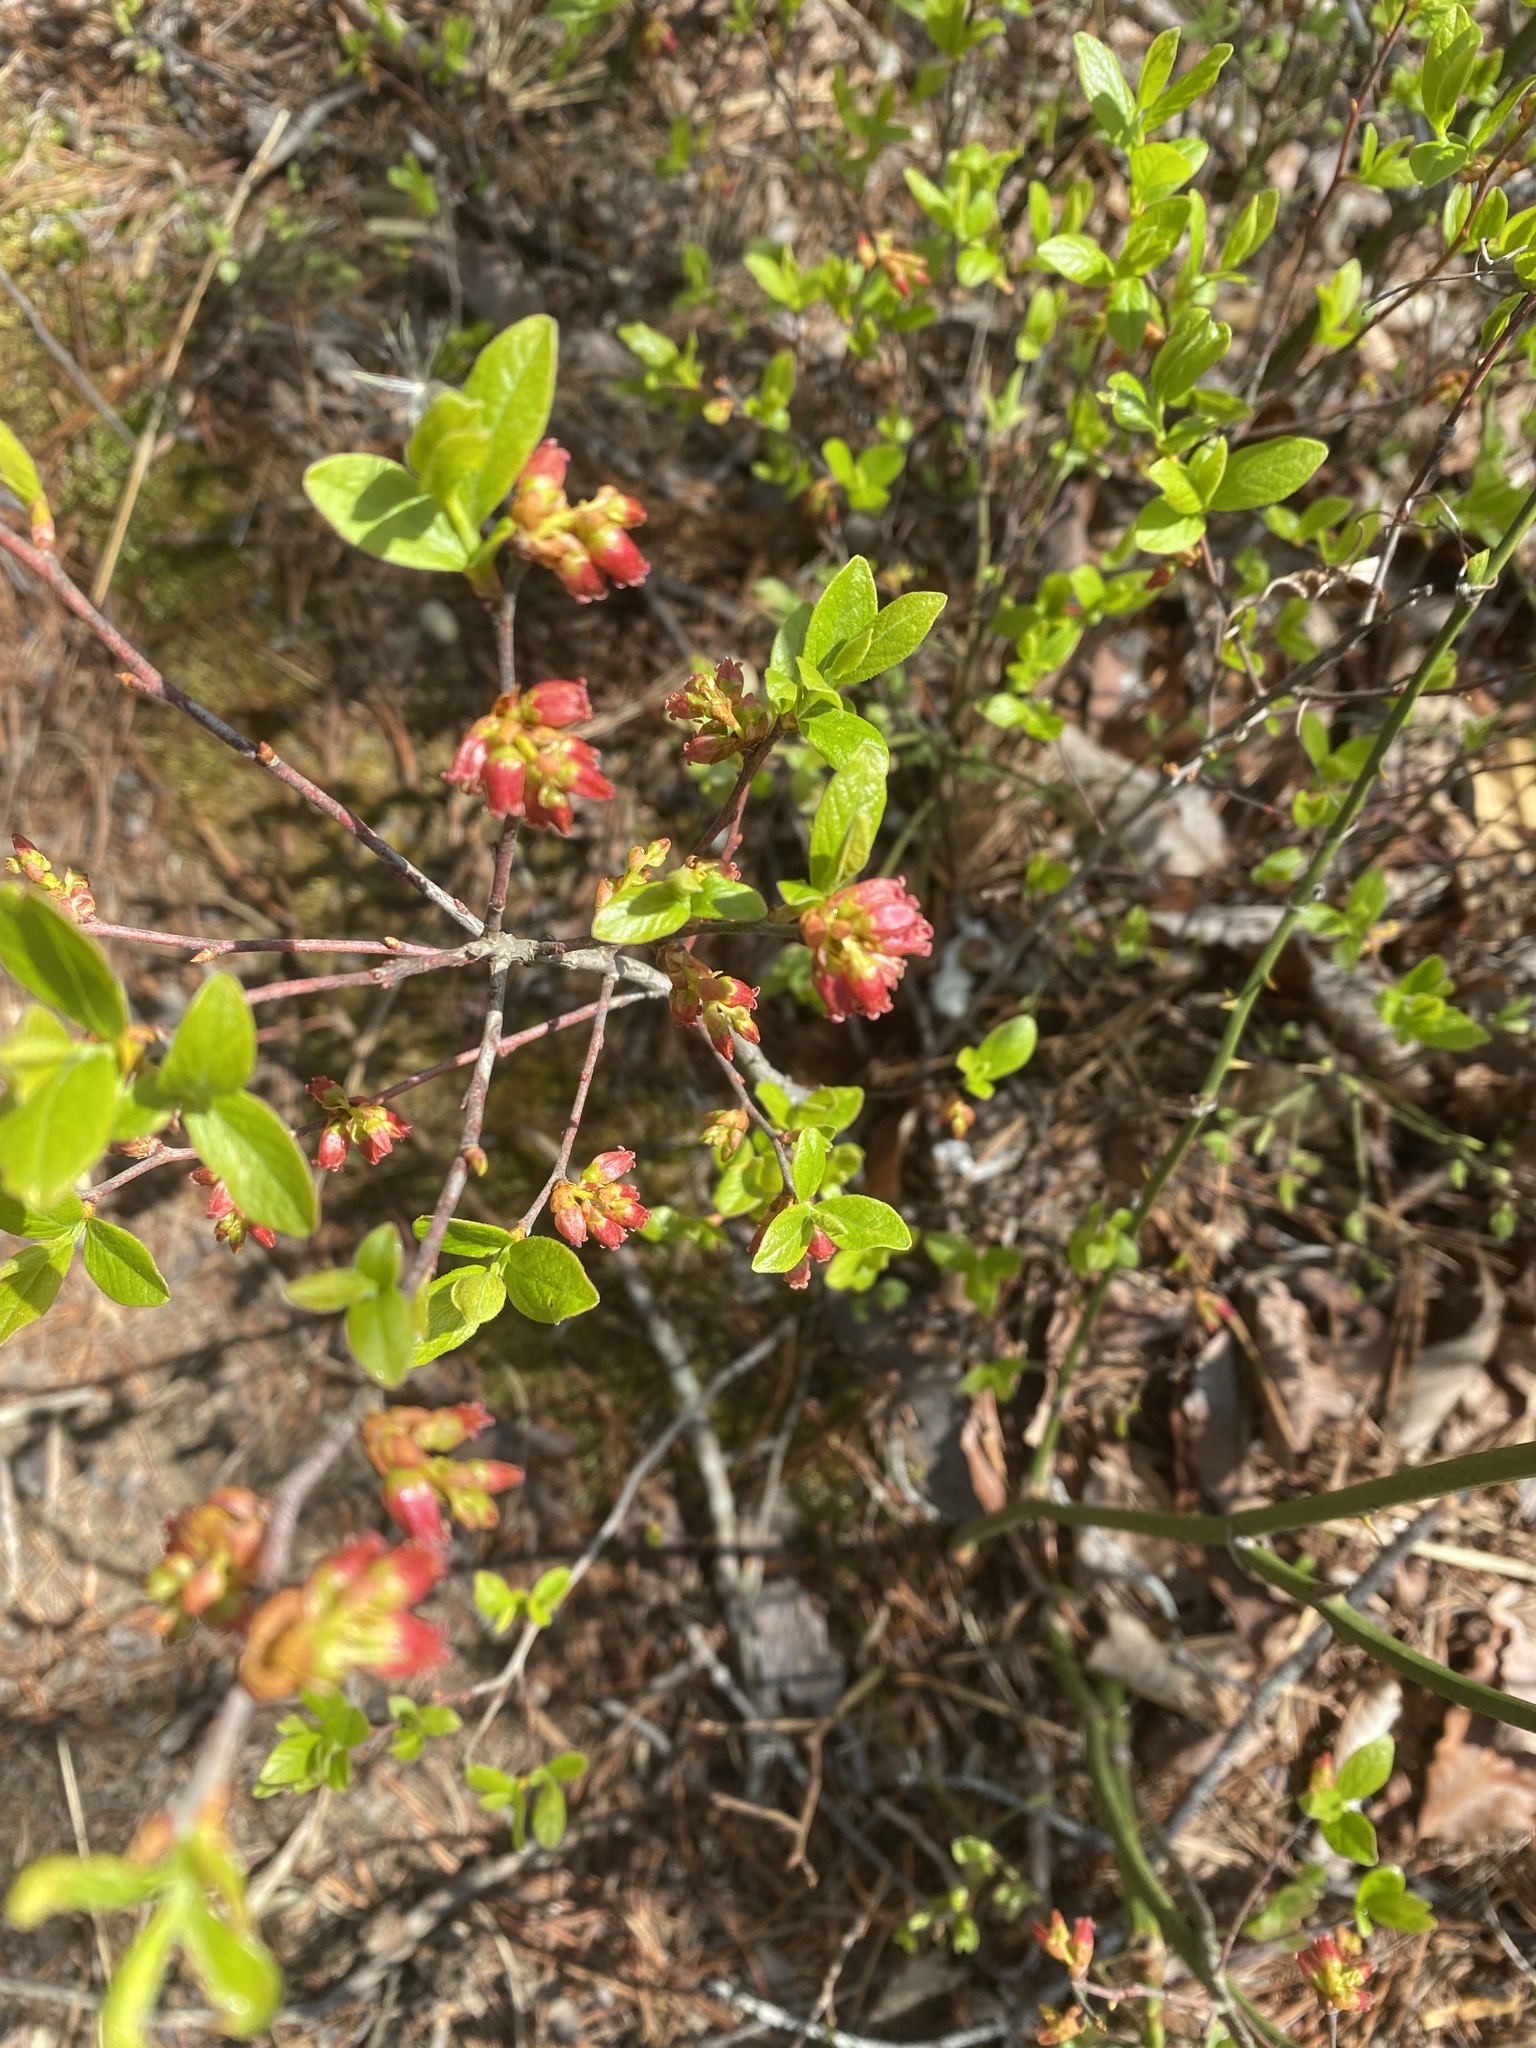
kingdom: Plantae
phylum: Tracheophyta
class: Magnoliopsida
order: Ericales
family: Ericaceae
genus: Gaylussacia
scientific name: Gaylussacia baccata
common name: Black huckleberry
